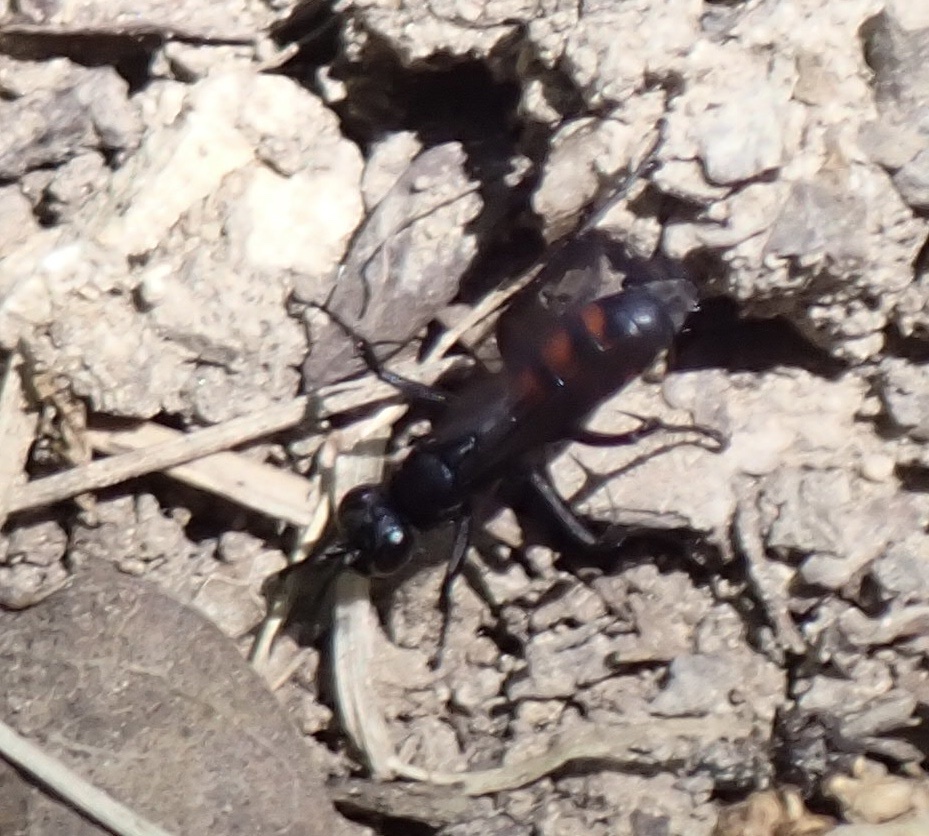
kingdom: Animalia
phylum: Arthropoda
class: Insecta
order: Hymenoptera
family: Pompilidae
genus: Anoplius
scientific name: Anoplius viaticus
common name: Black banded spider wasp
